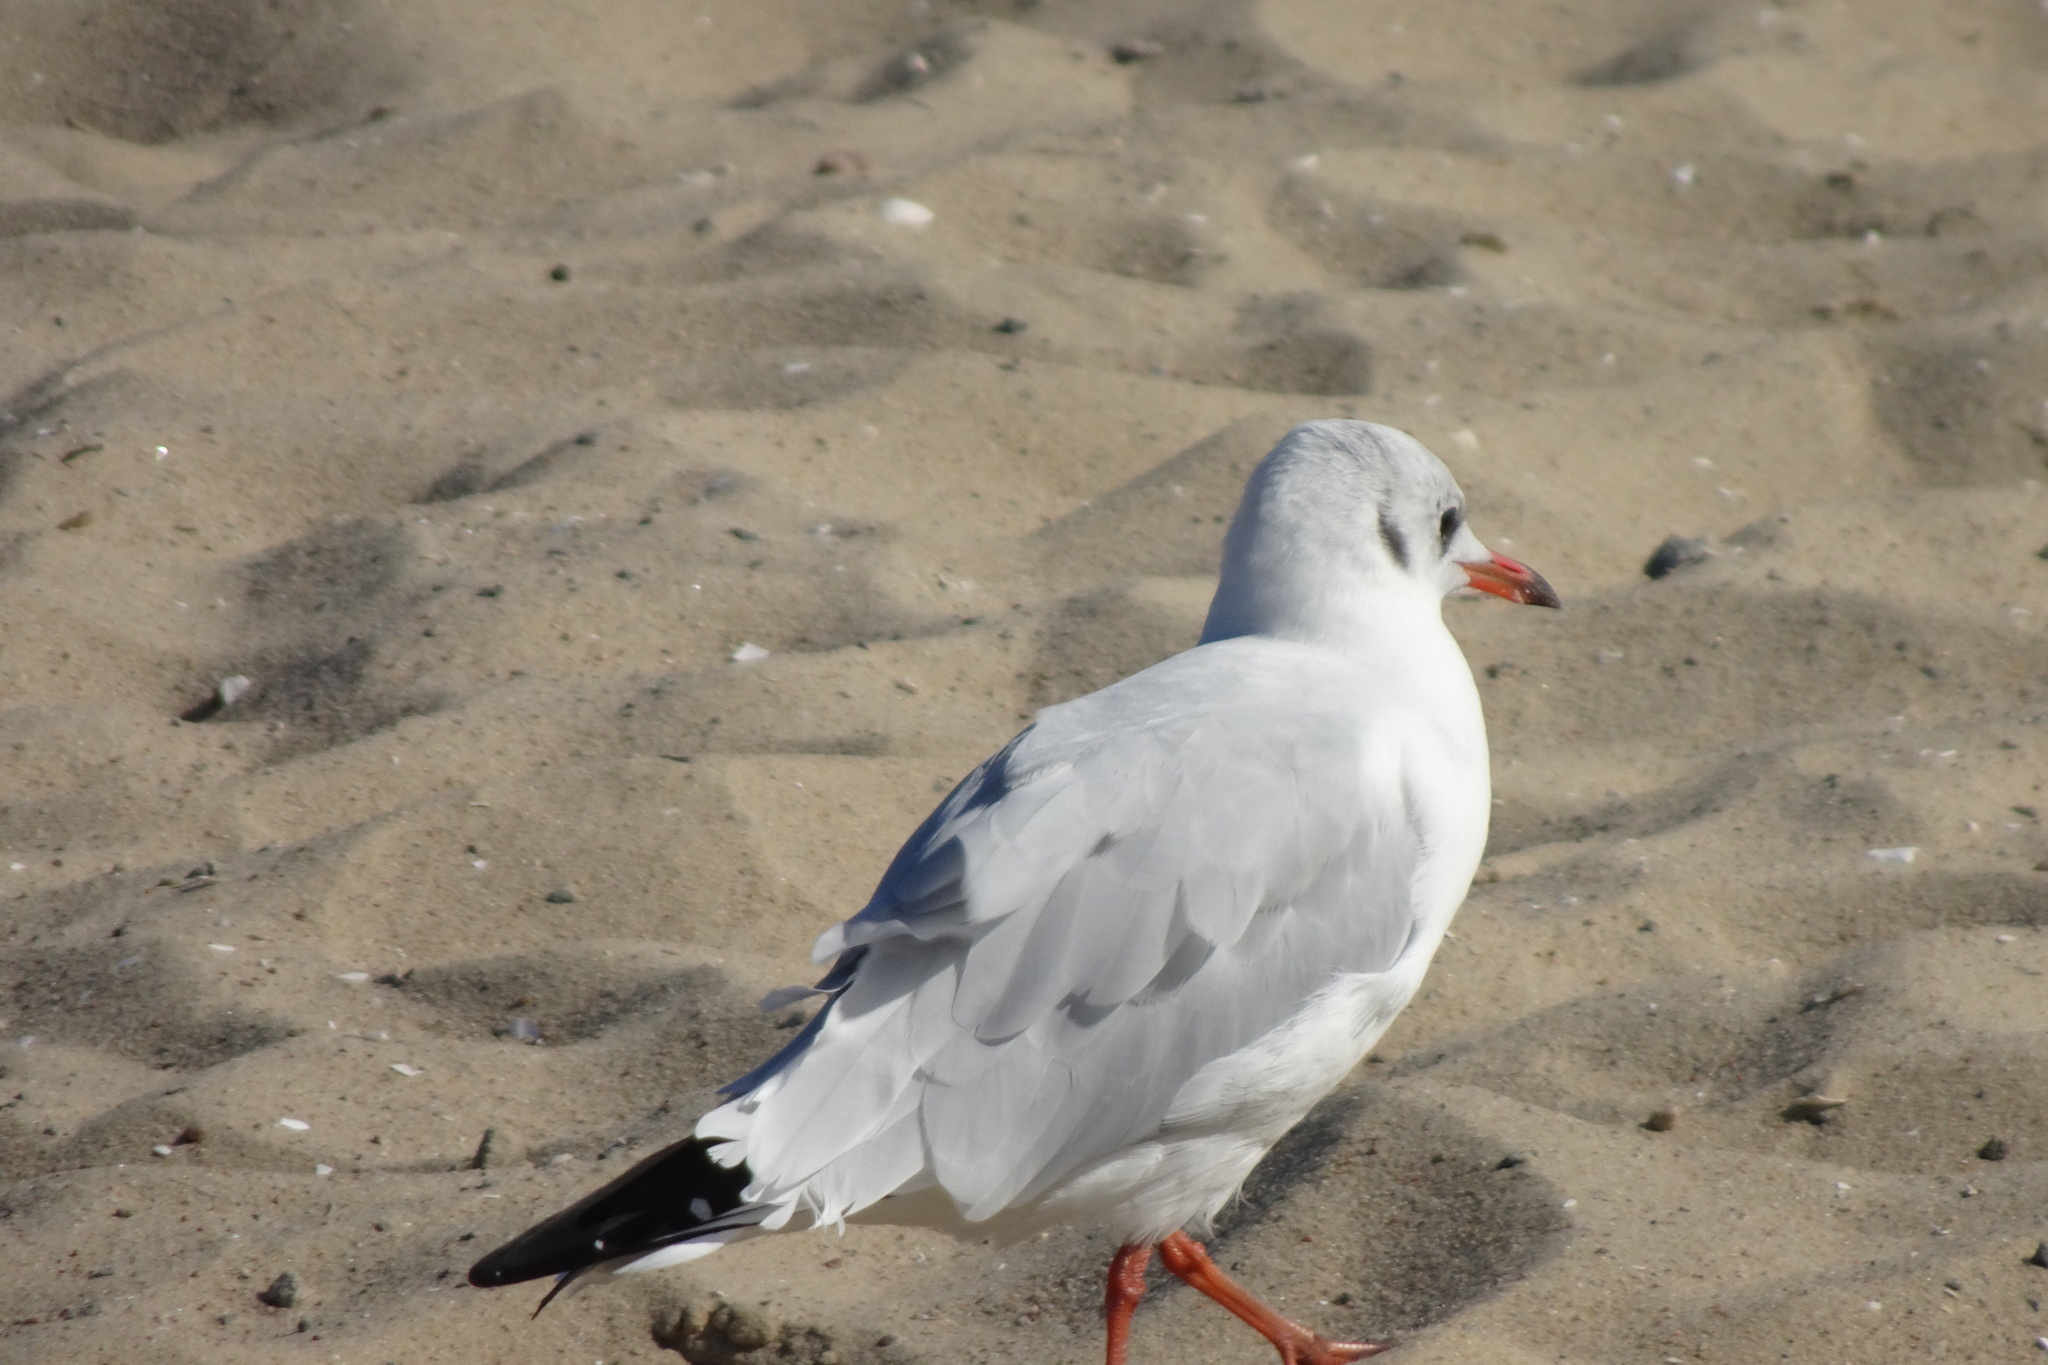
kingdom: Animalia
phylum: Chordata
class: Aves
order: Charadriiformes
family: Laridae
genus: Chroicocephalus
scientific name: Chroicocephalus ridibundus
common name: Black-headed gull
